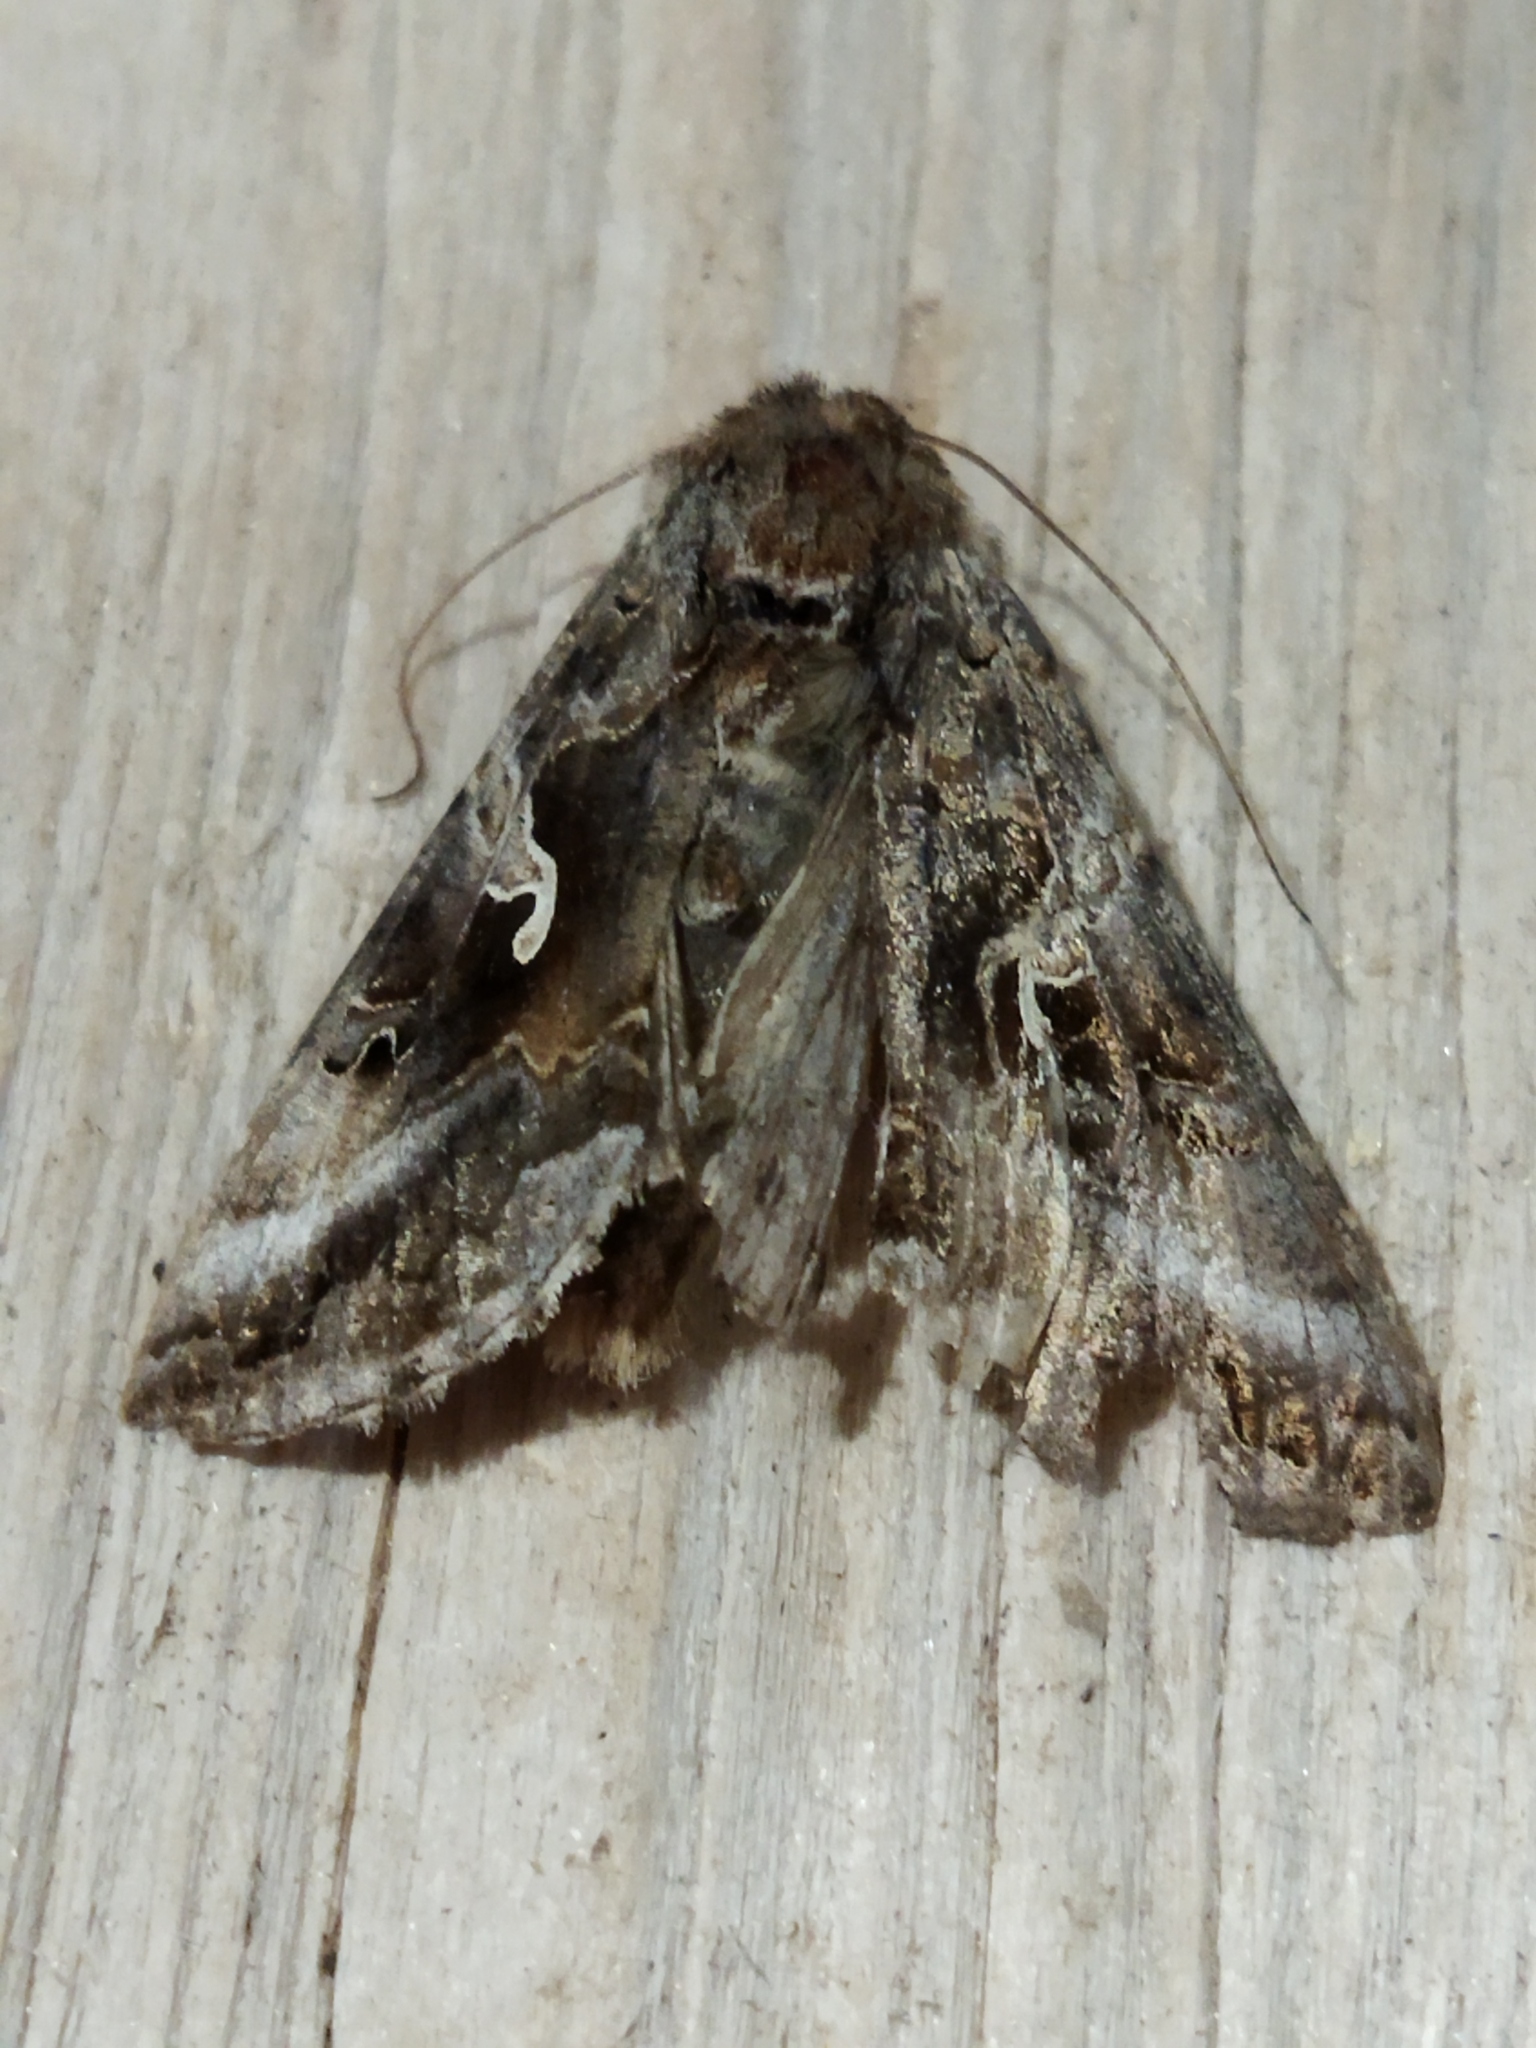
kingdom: Animalia
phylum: Arthropoda
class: Insecta
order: Lepidoptera
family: Noctuidae
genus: Autographa
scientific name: Autographa gamma
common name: Silver y
